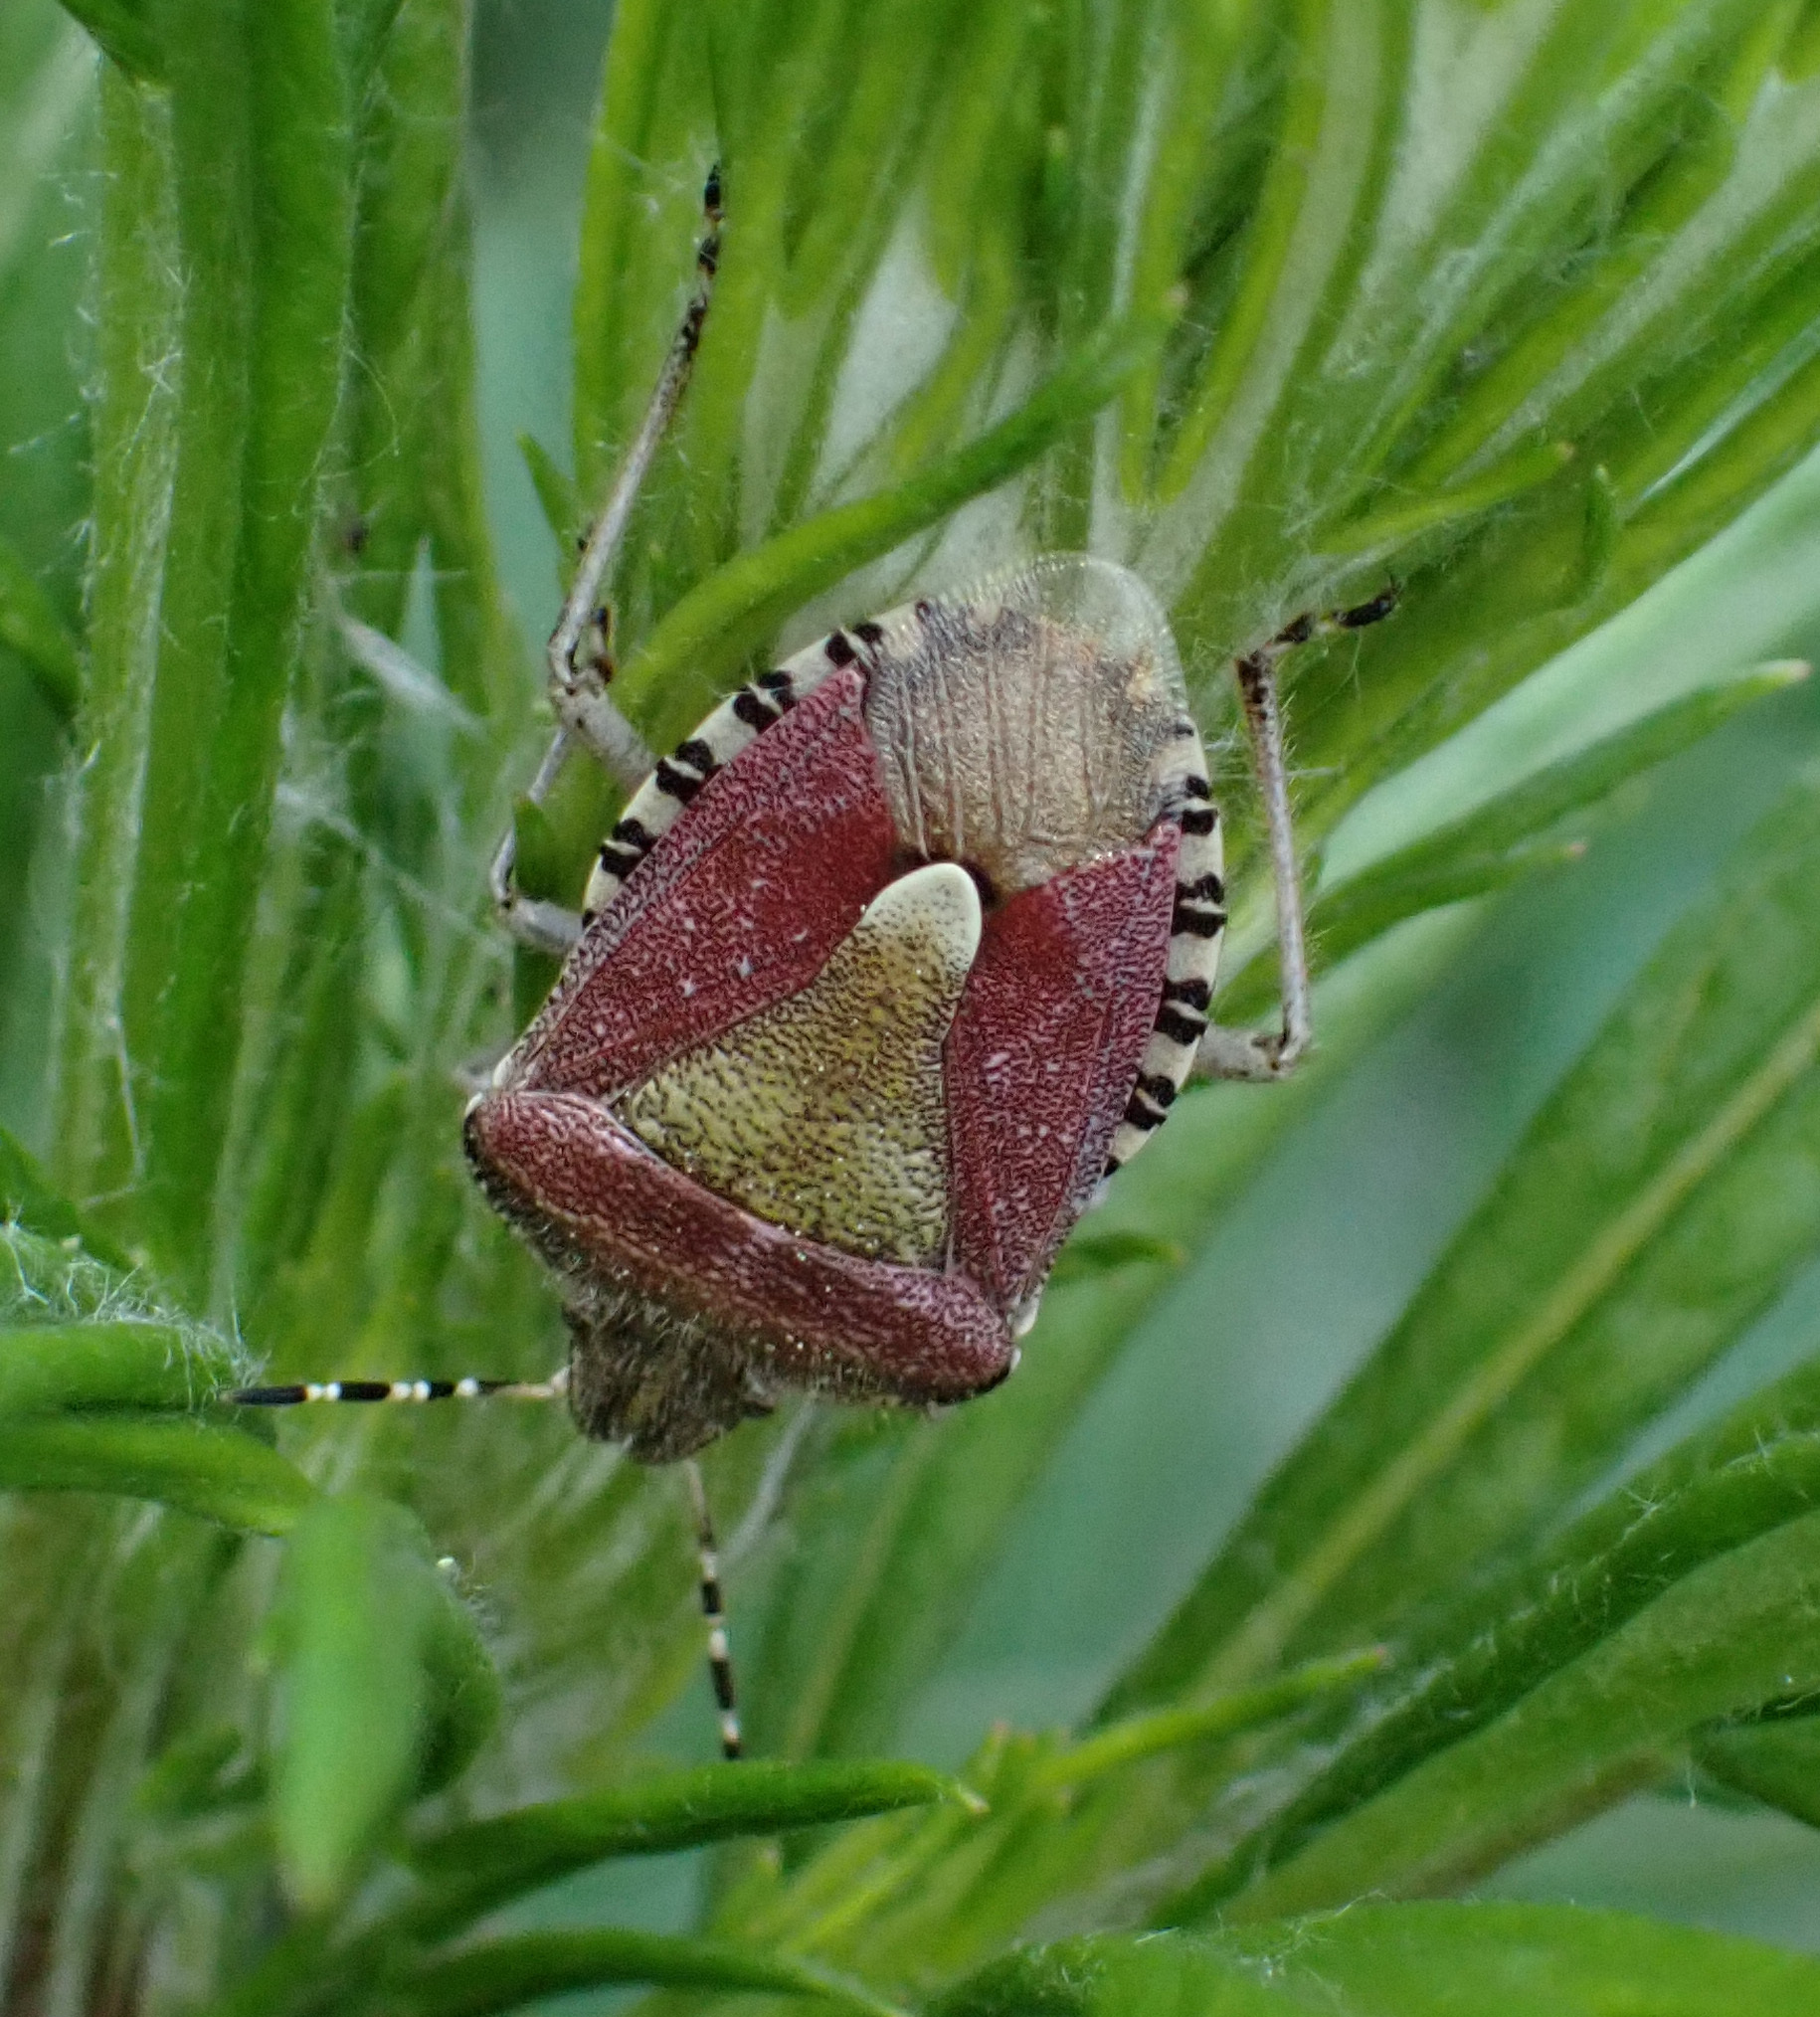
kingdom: Animalia
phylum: Arthropoda
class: Insecta
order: Hemiptera
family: Pentatomidae
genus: Dolycoris
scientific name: Dolycoris baccarum
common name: Sloe bug
